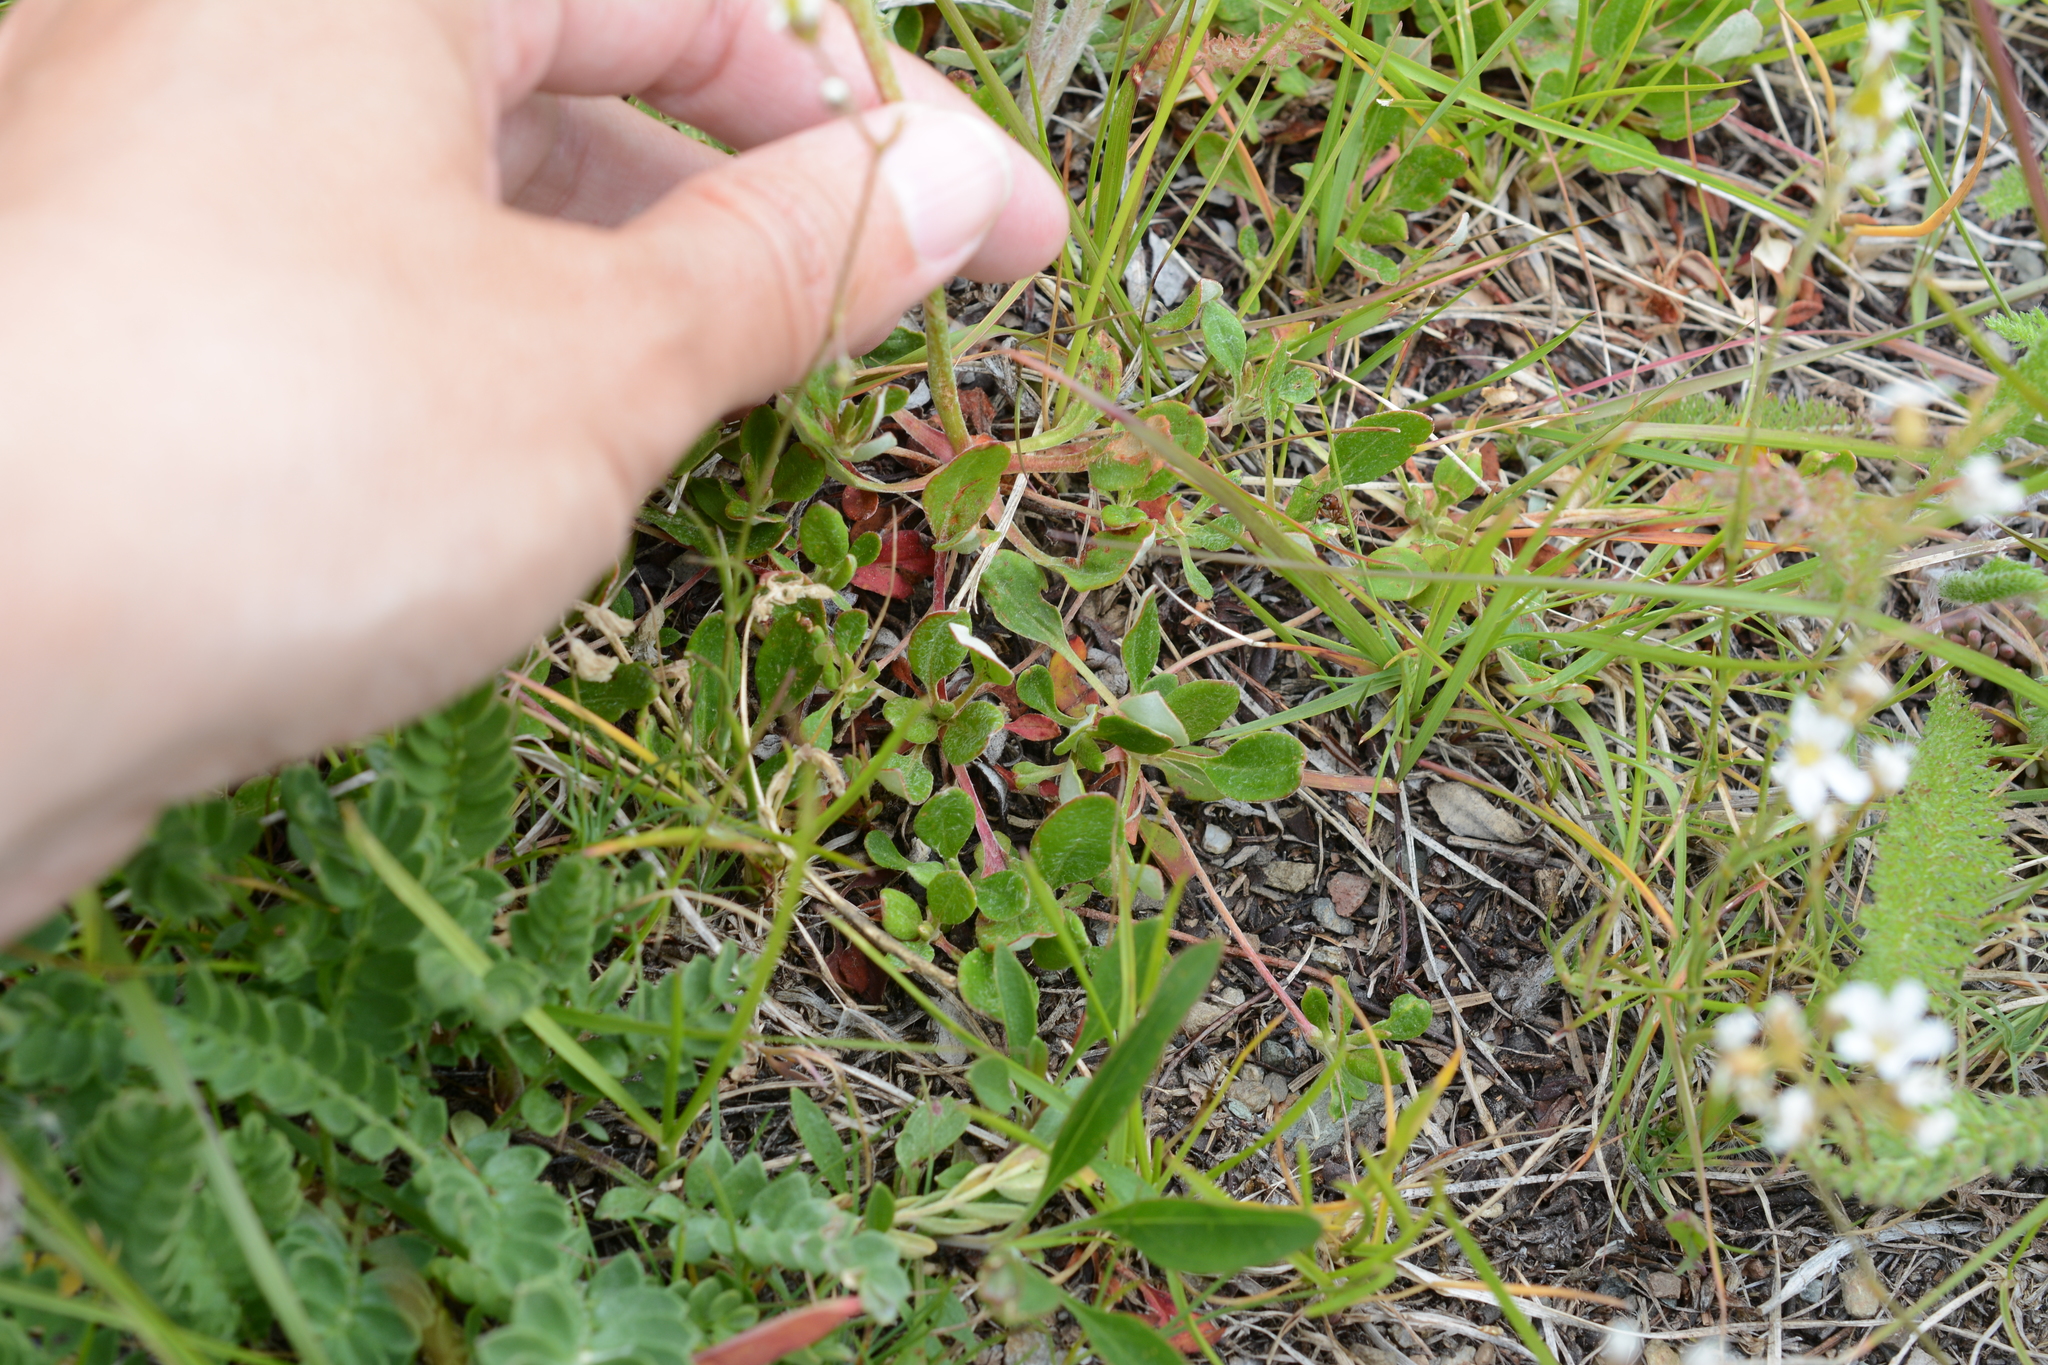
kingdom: Plantae
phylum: Tracheophyta
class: Magnoliopsida
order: Caryophyllales
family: Polygonaceae
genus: Eriogonum
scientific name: Eriogonum umbellatum
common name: Sulfur-buckwheat
